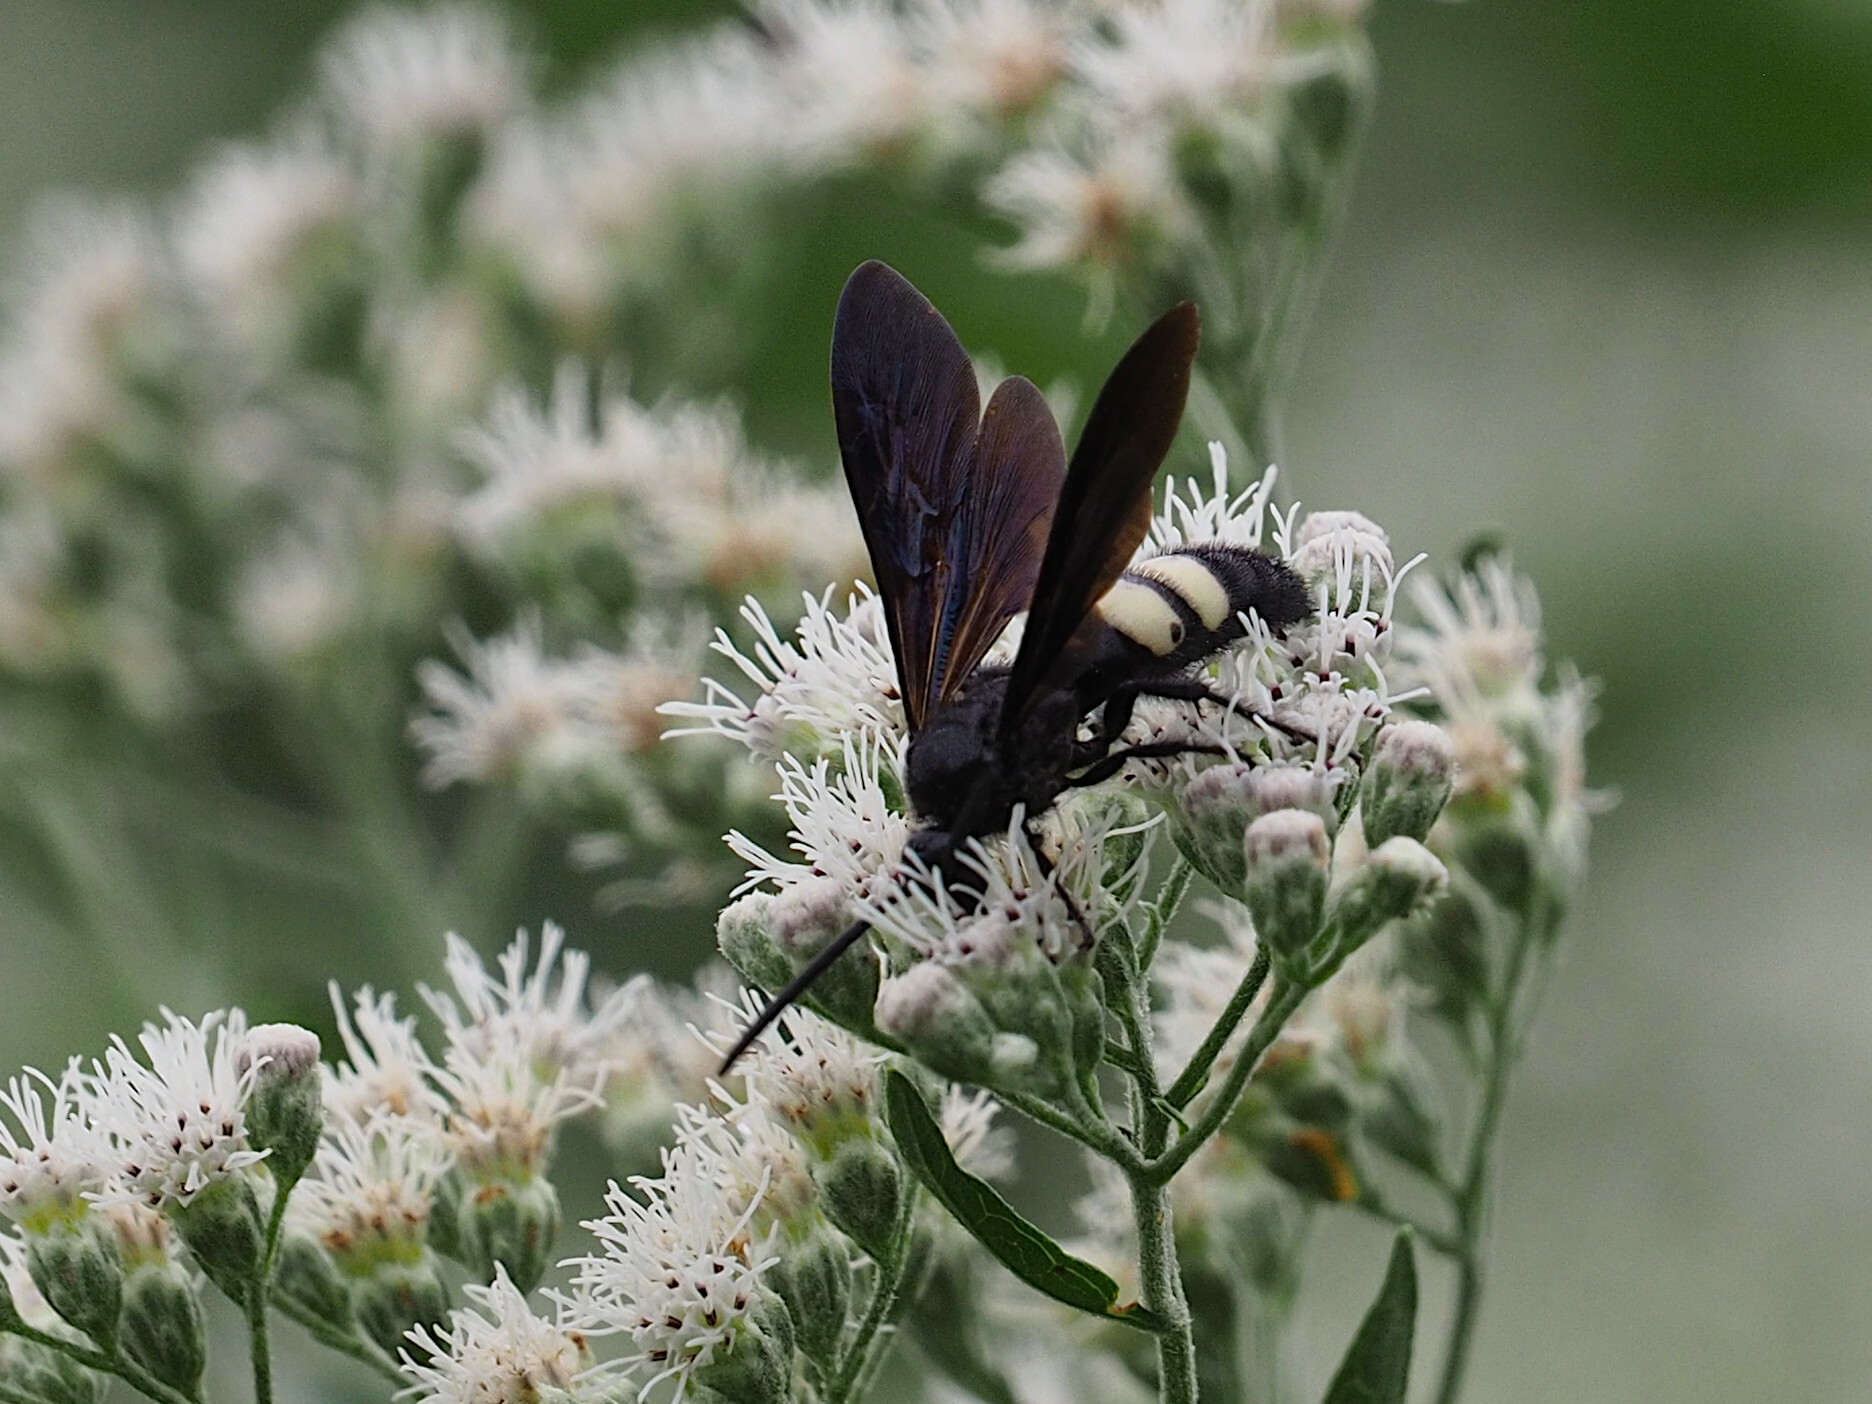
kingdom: Animalia
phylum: Arthropoda
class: Insecta
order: Hymenoptera
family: Scoliidae
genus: Scolia
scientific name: Scolia bicincta
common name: Double-banded scoliid wasp
